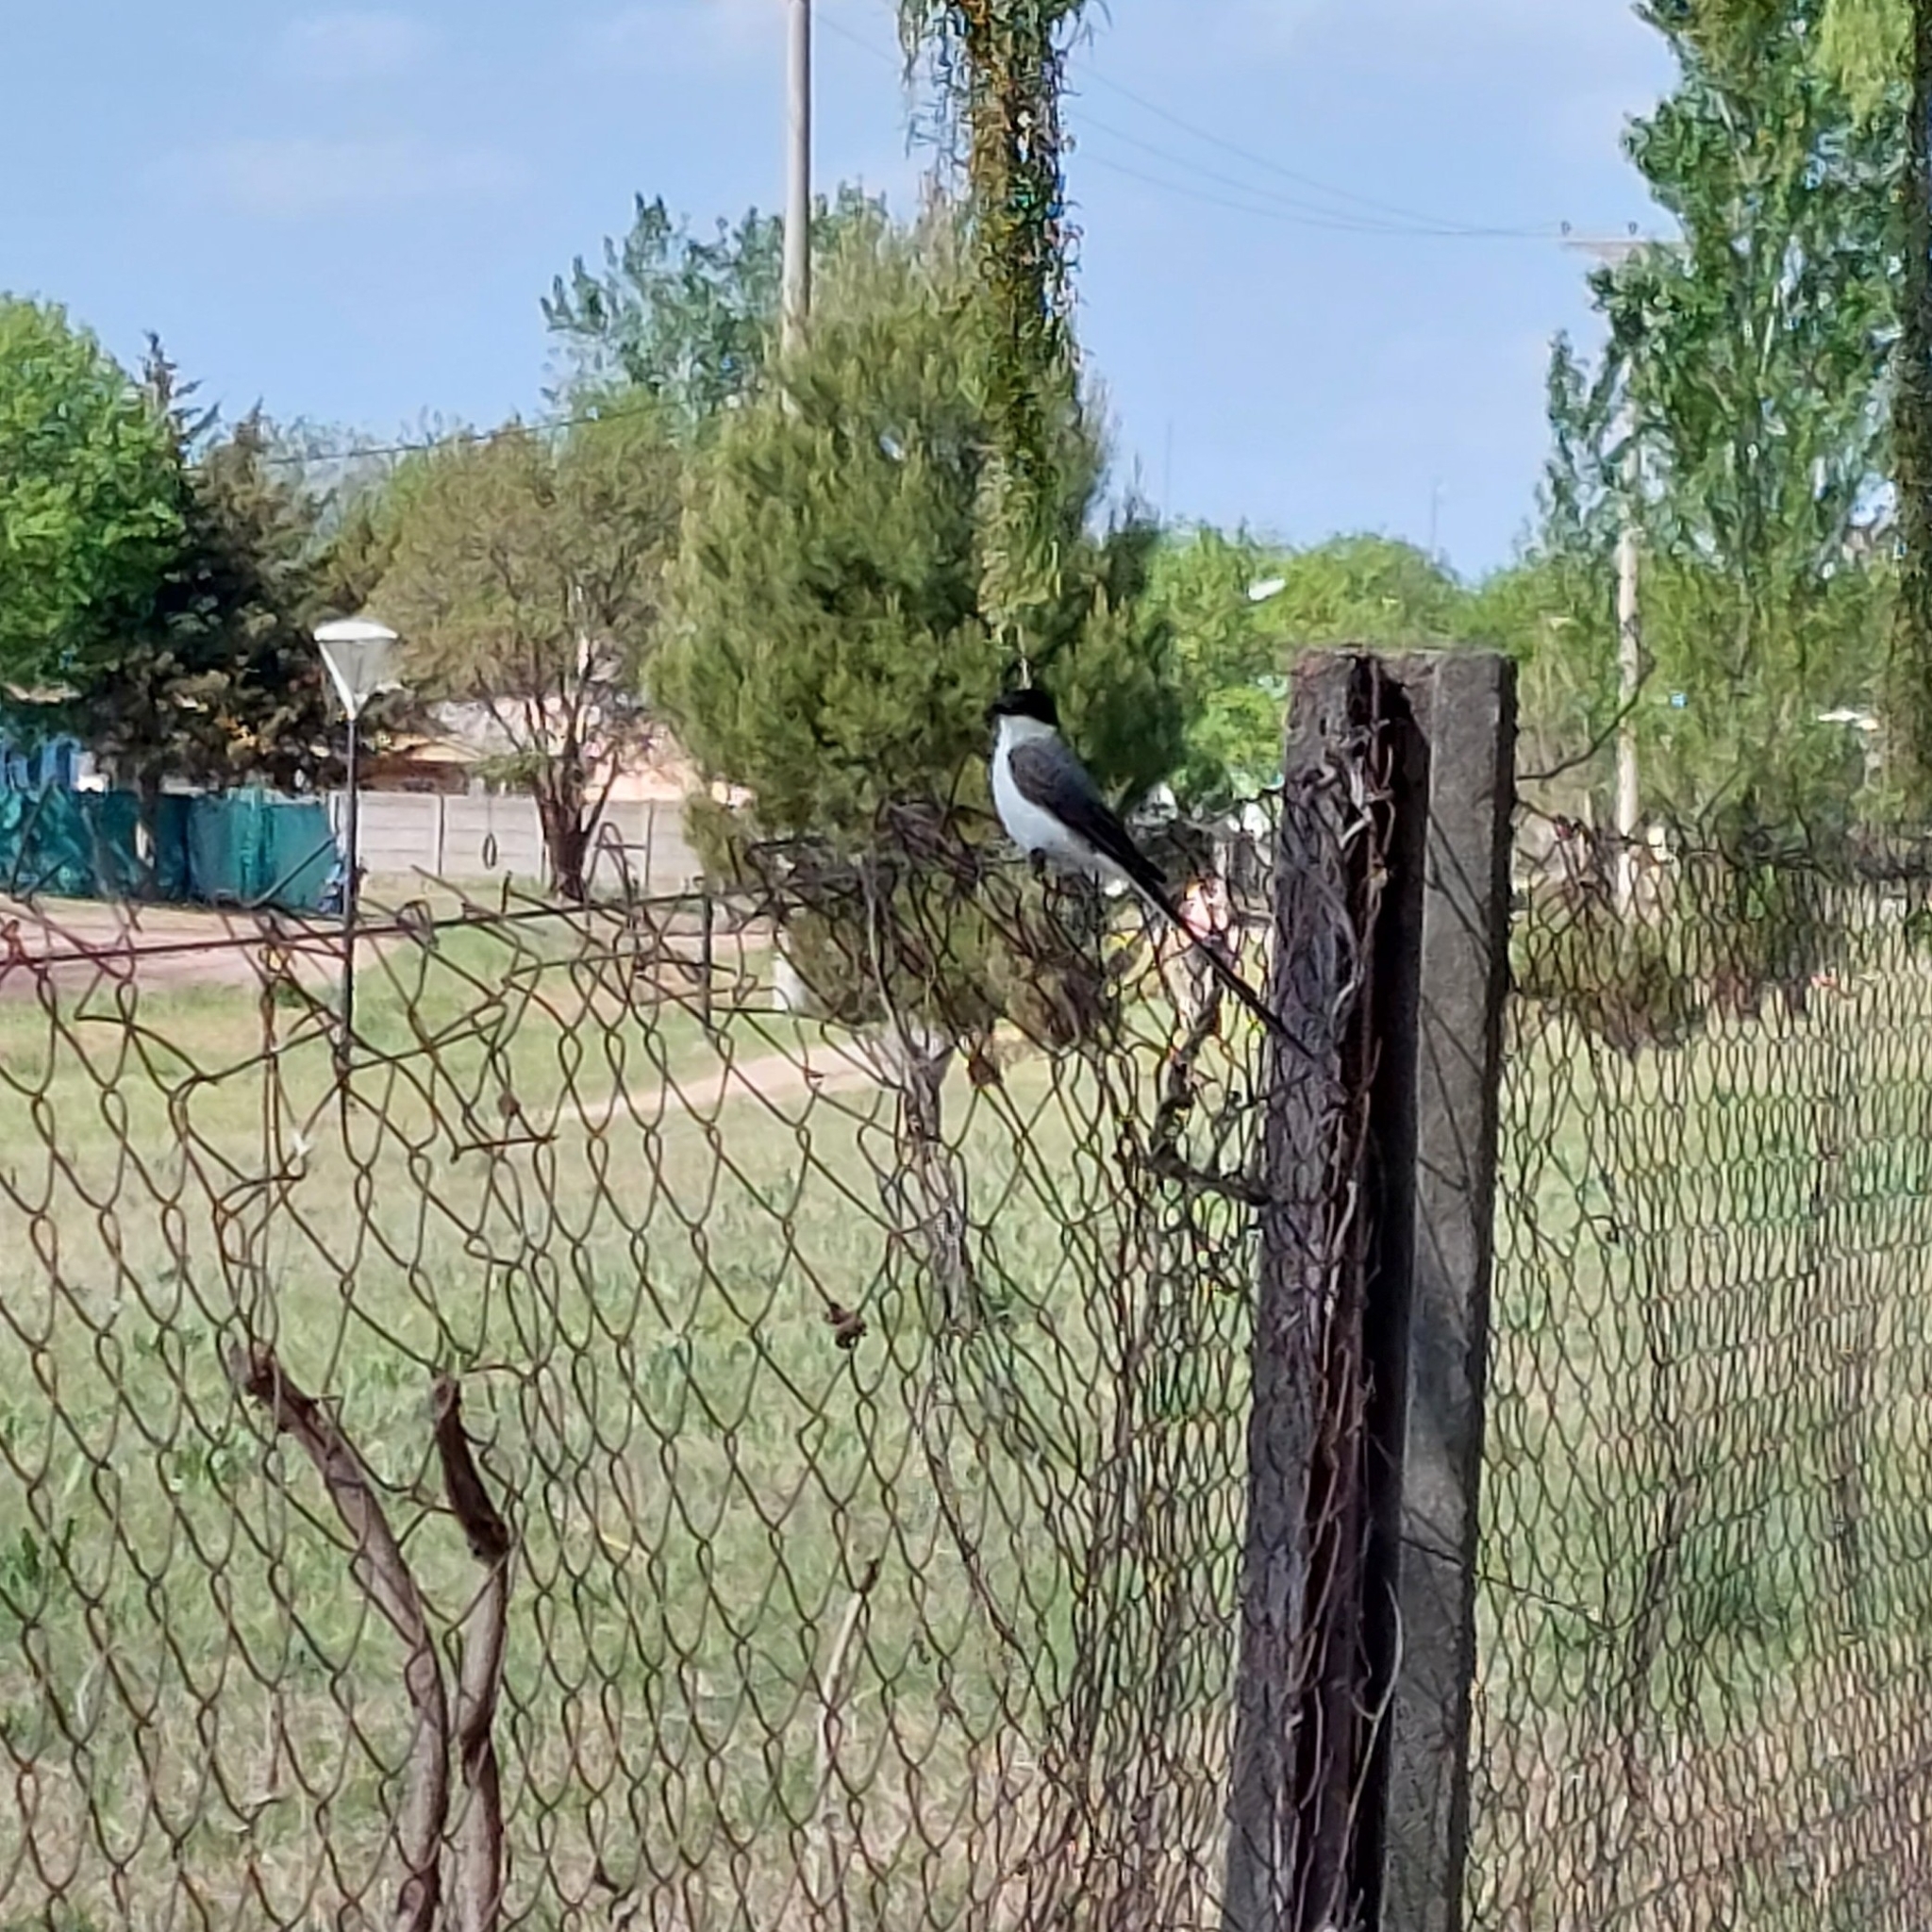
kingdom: Animalia
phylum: Chordata
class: Aves
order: Passeriformes
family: Tyrannidae
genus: Tyrannus
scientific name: Tyrannus savana
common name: Fork-tailed flycatcher
